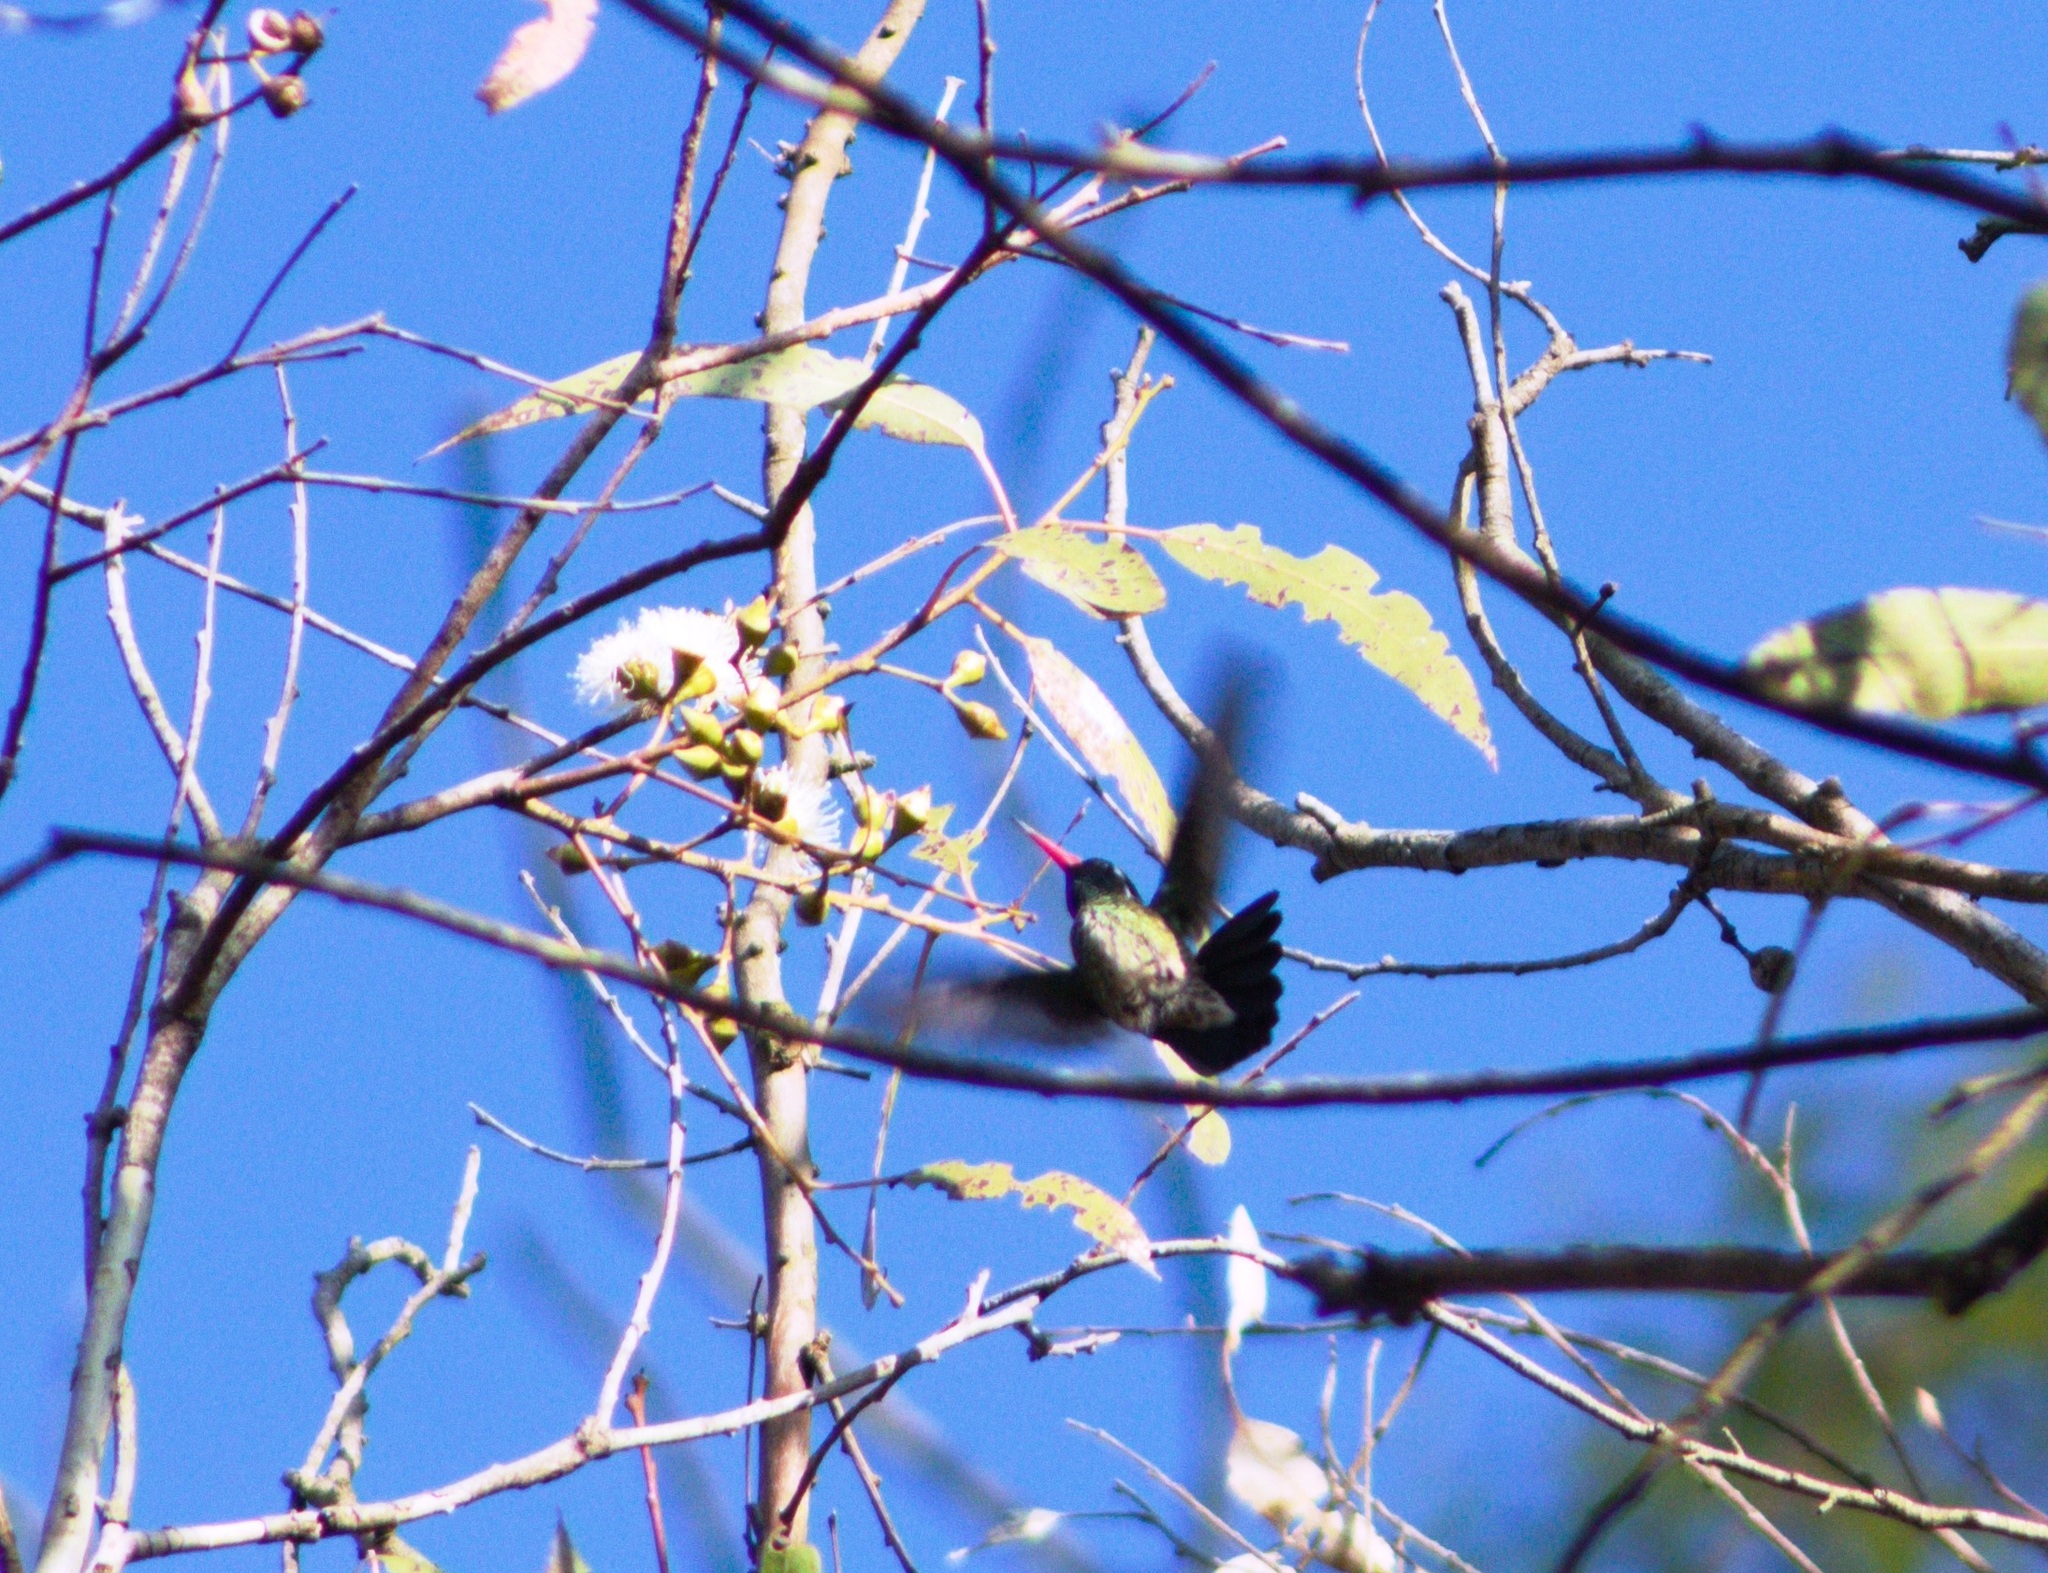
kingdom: Animalia
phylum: Chordata
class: Aves
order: Apodiformes
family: Trochilidae
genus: Basilinna
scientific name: Basilinna leucotis
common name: White-eared hummingbird
